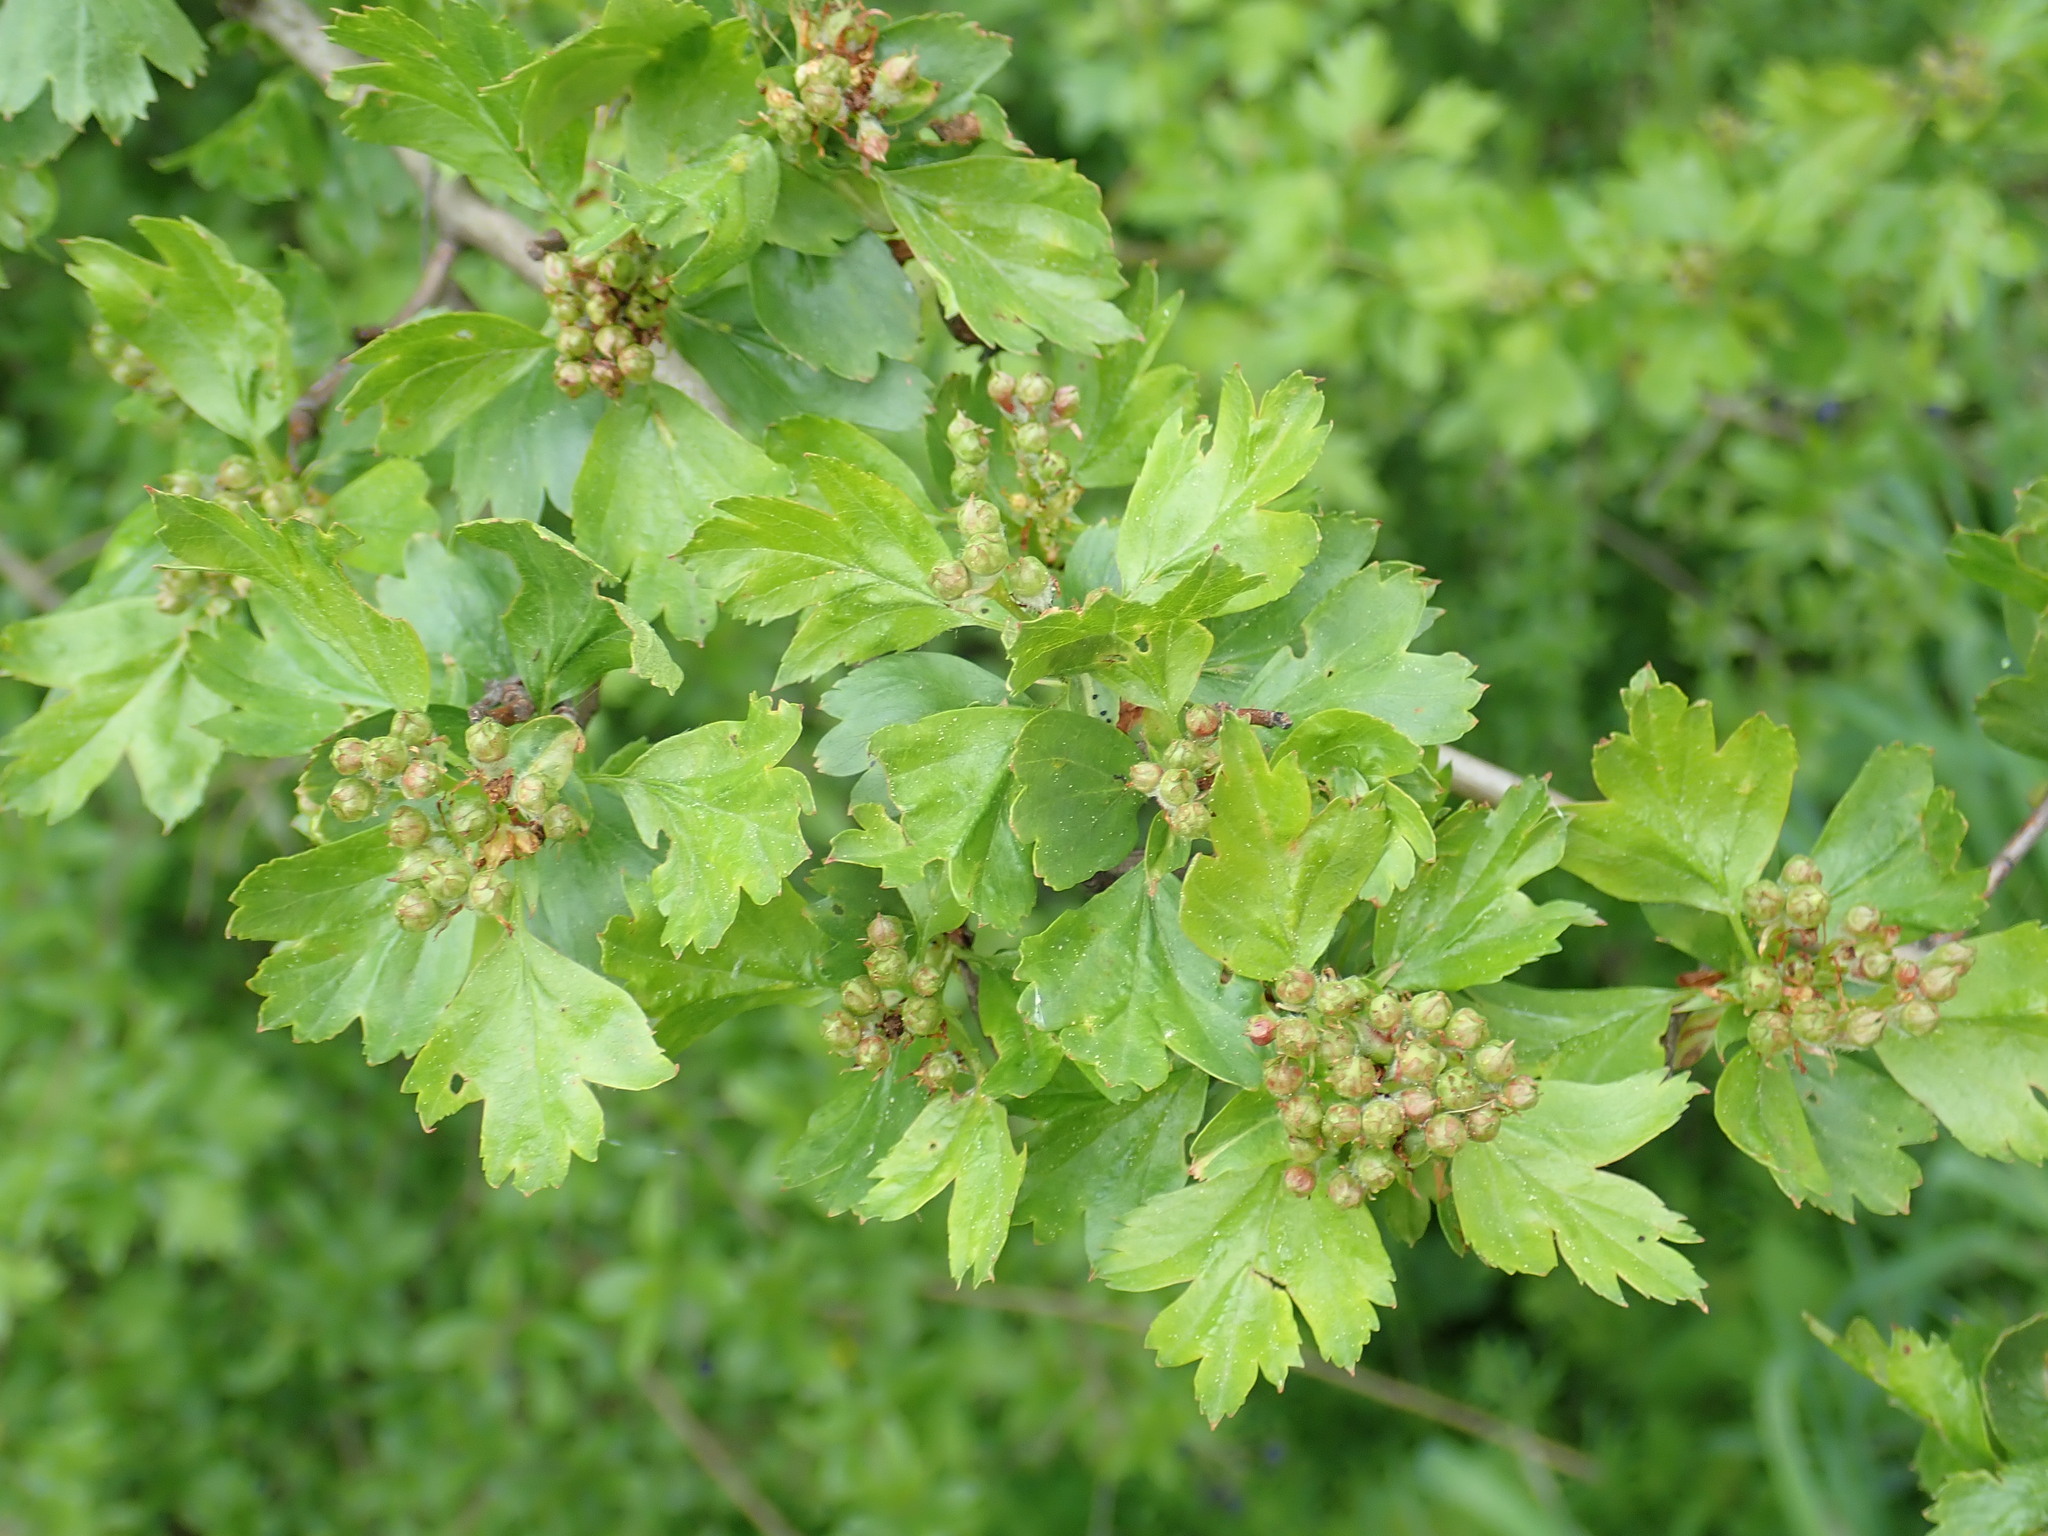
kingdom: Plantae
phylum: Tracheophyta
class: Magnoliopsida
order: Rosales
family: Rosaceae
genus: Crataegus
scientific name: Crataegus monogyna
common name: Hawthorn
